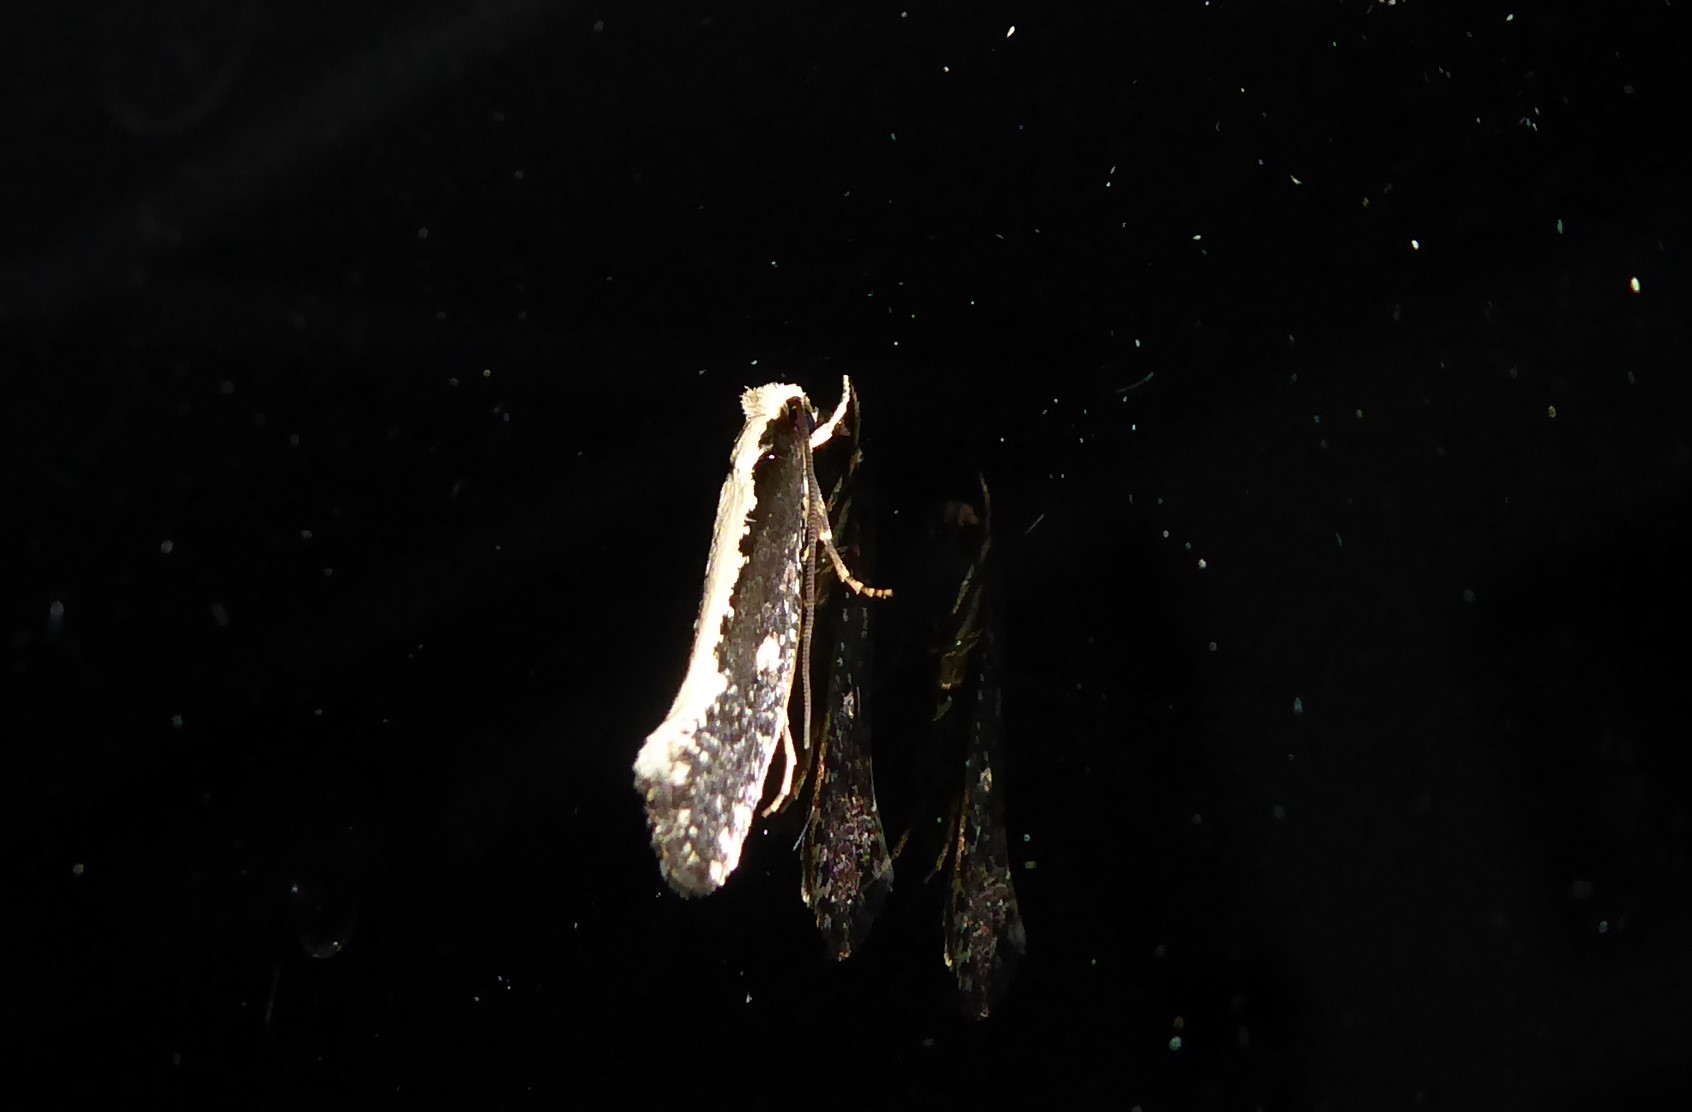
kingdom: Animalia
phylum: Arthropoda
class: Insecta
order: Lepidoptera
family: Tineidae
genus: Monopis
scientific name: Monopis ethelella
